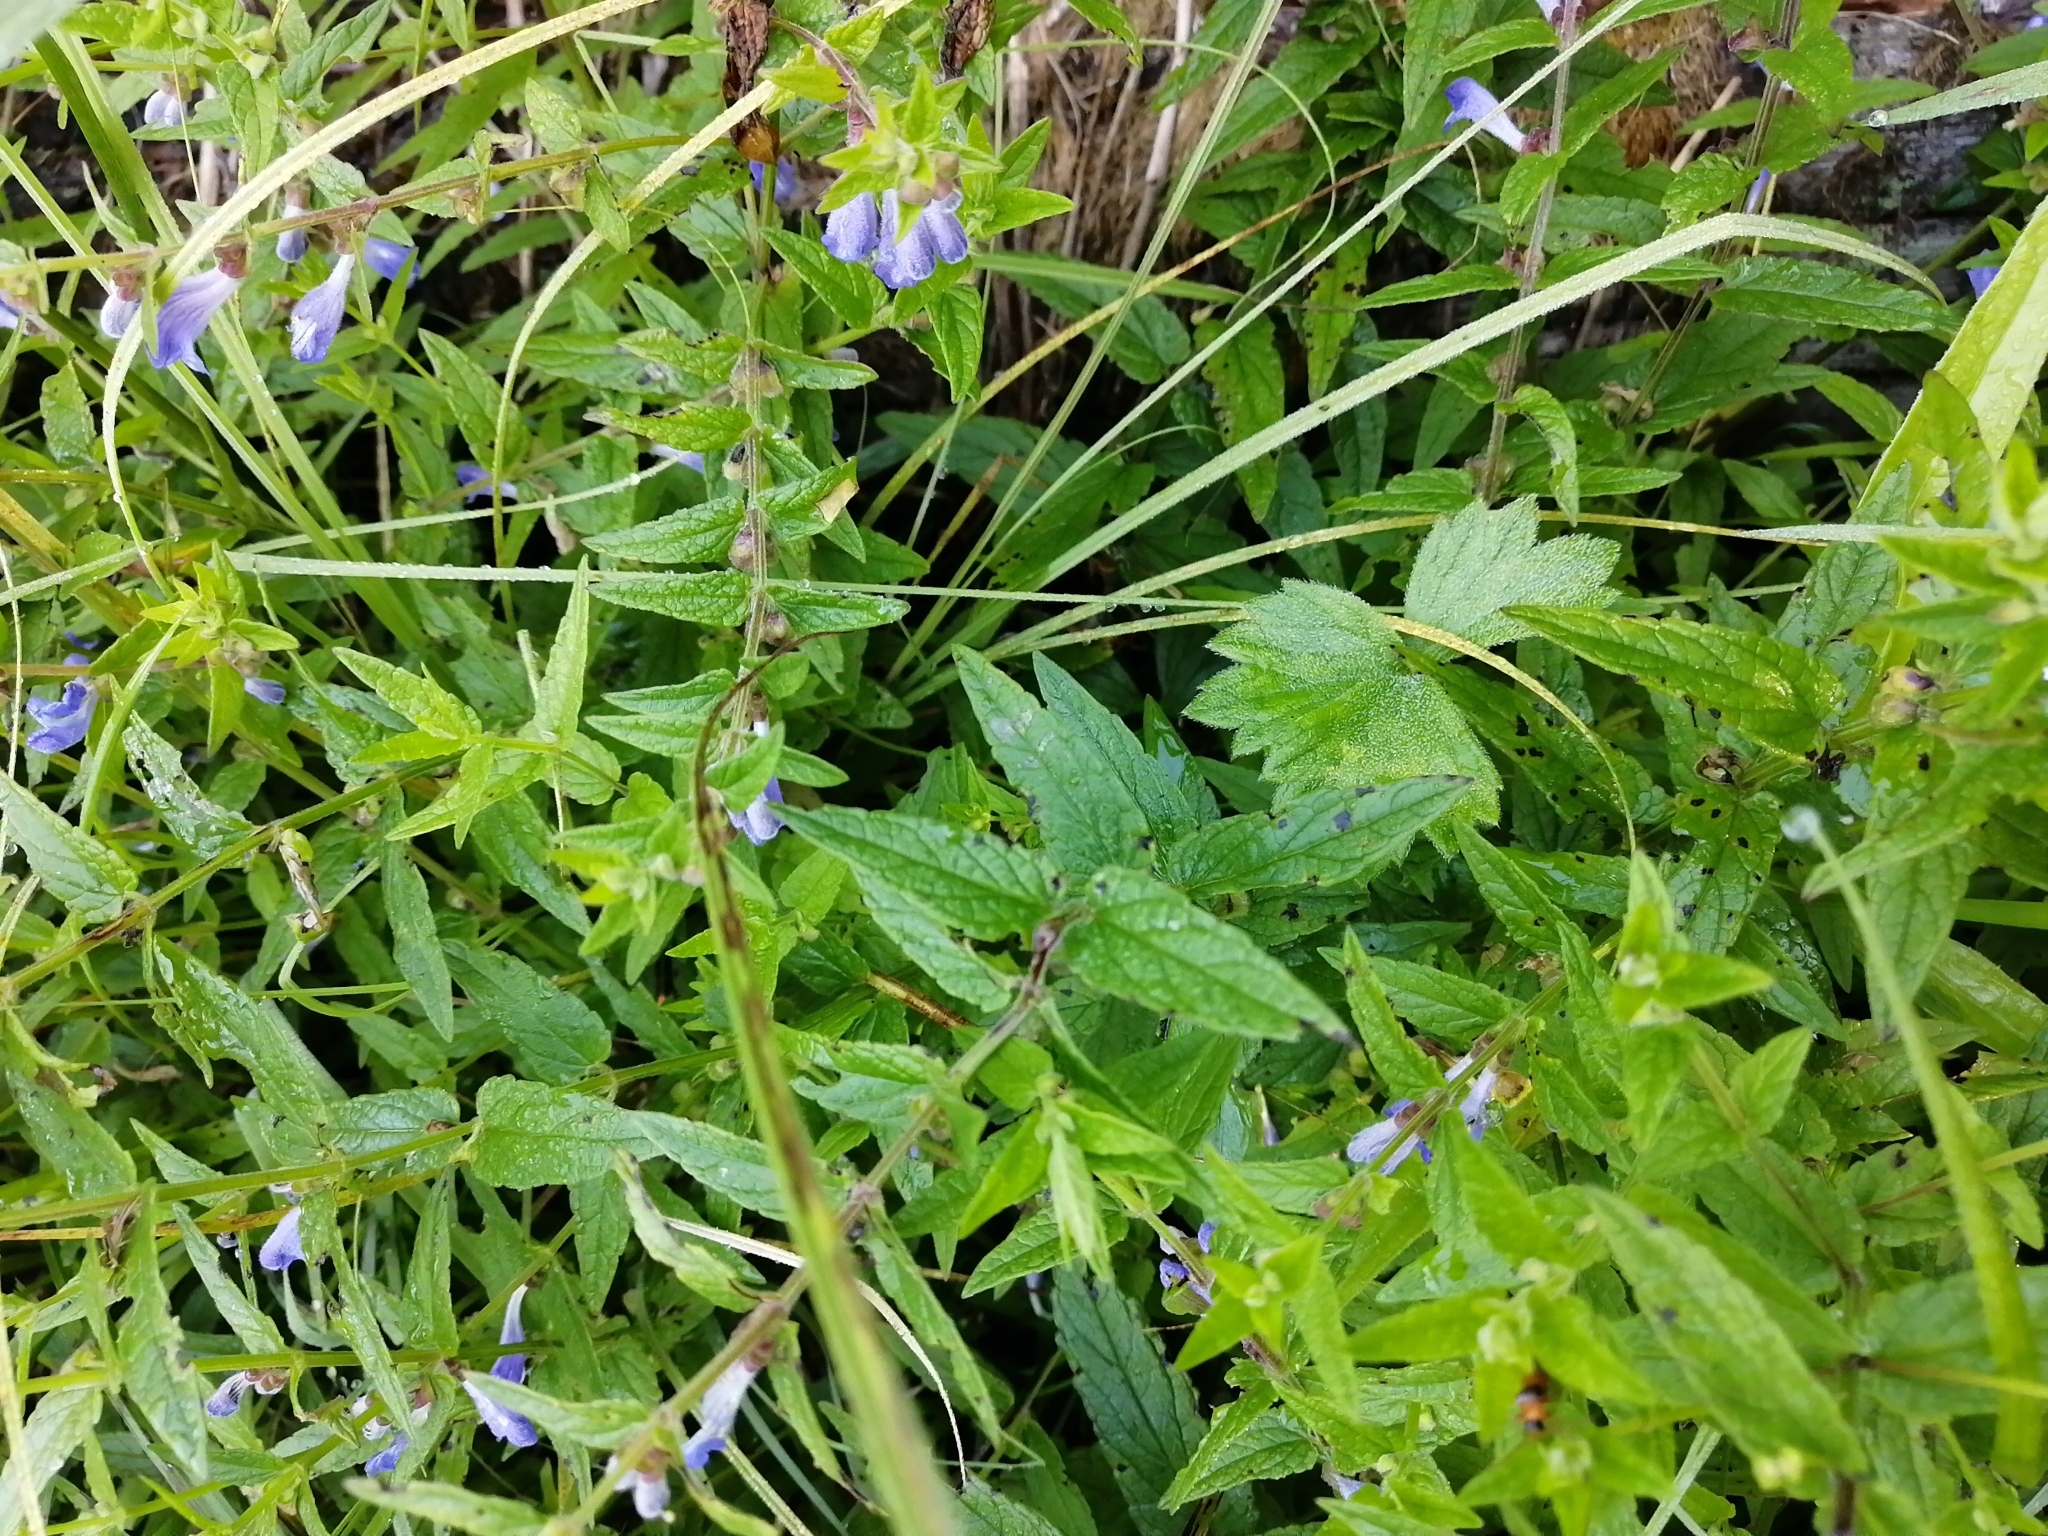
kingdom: Plantae
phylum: Tracheophyta
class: Magnoliopsida
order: Lamiales
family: Lamiaceae
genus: Scutellaria
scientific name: Scutellaria galericulata
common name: Skullcap
